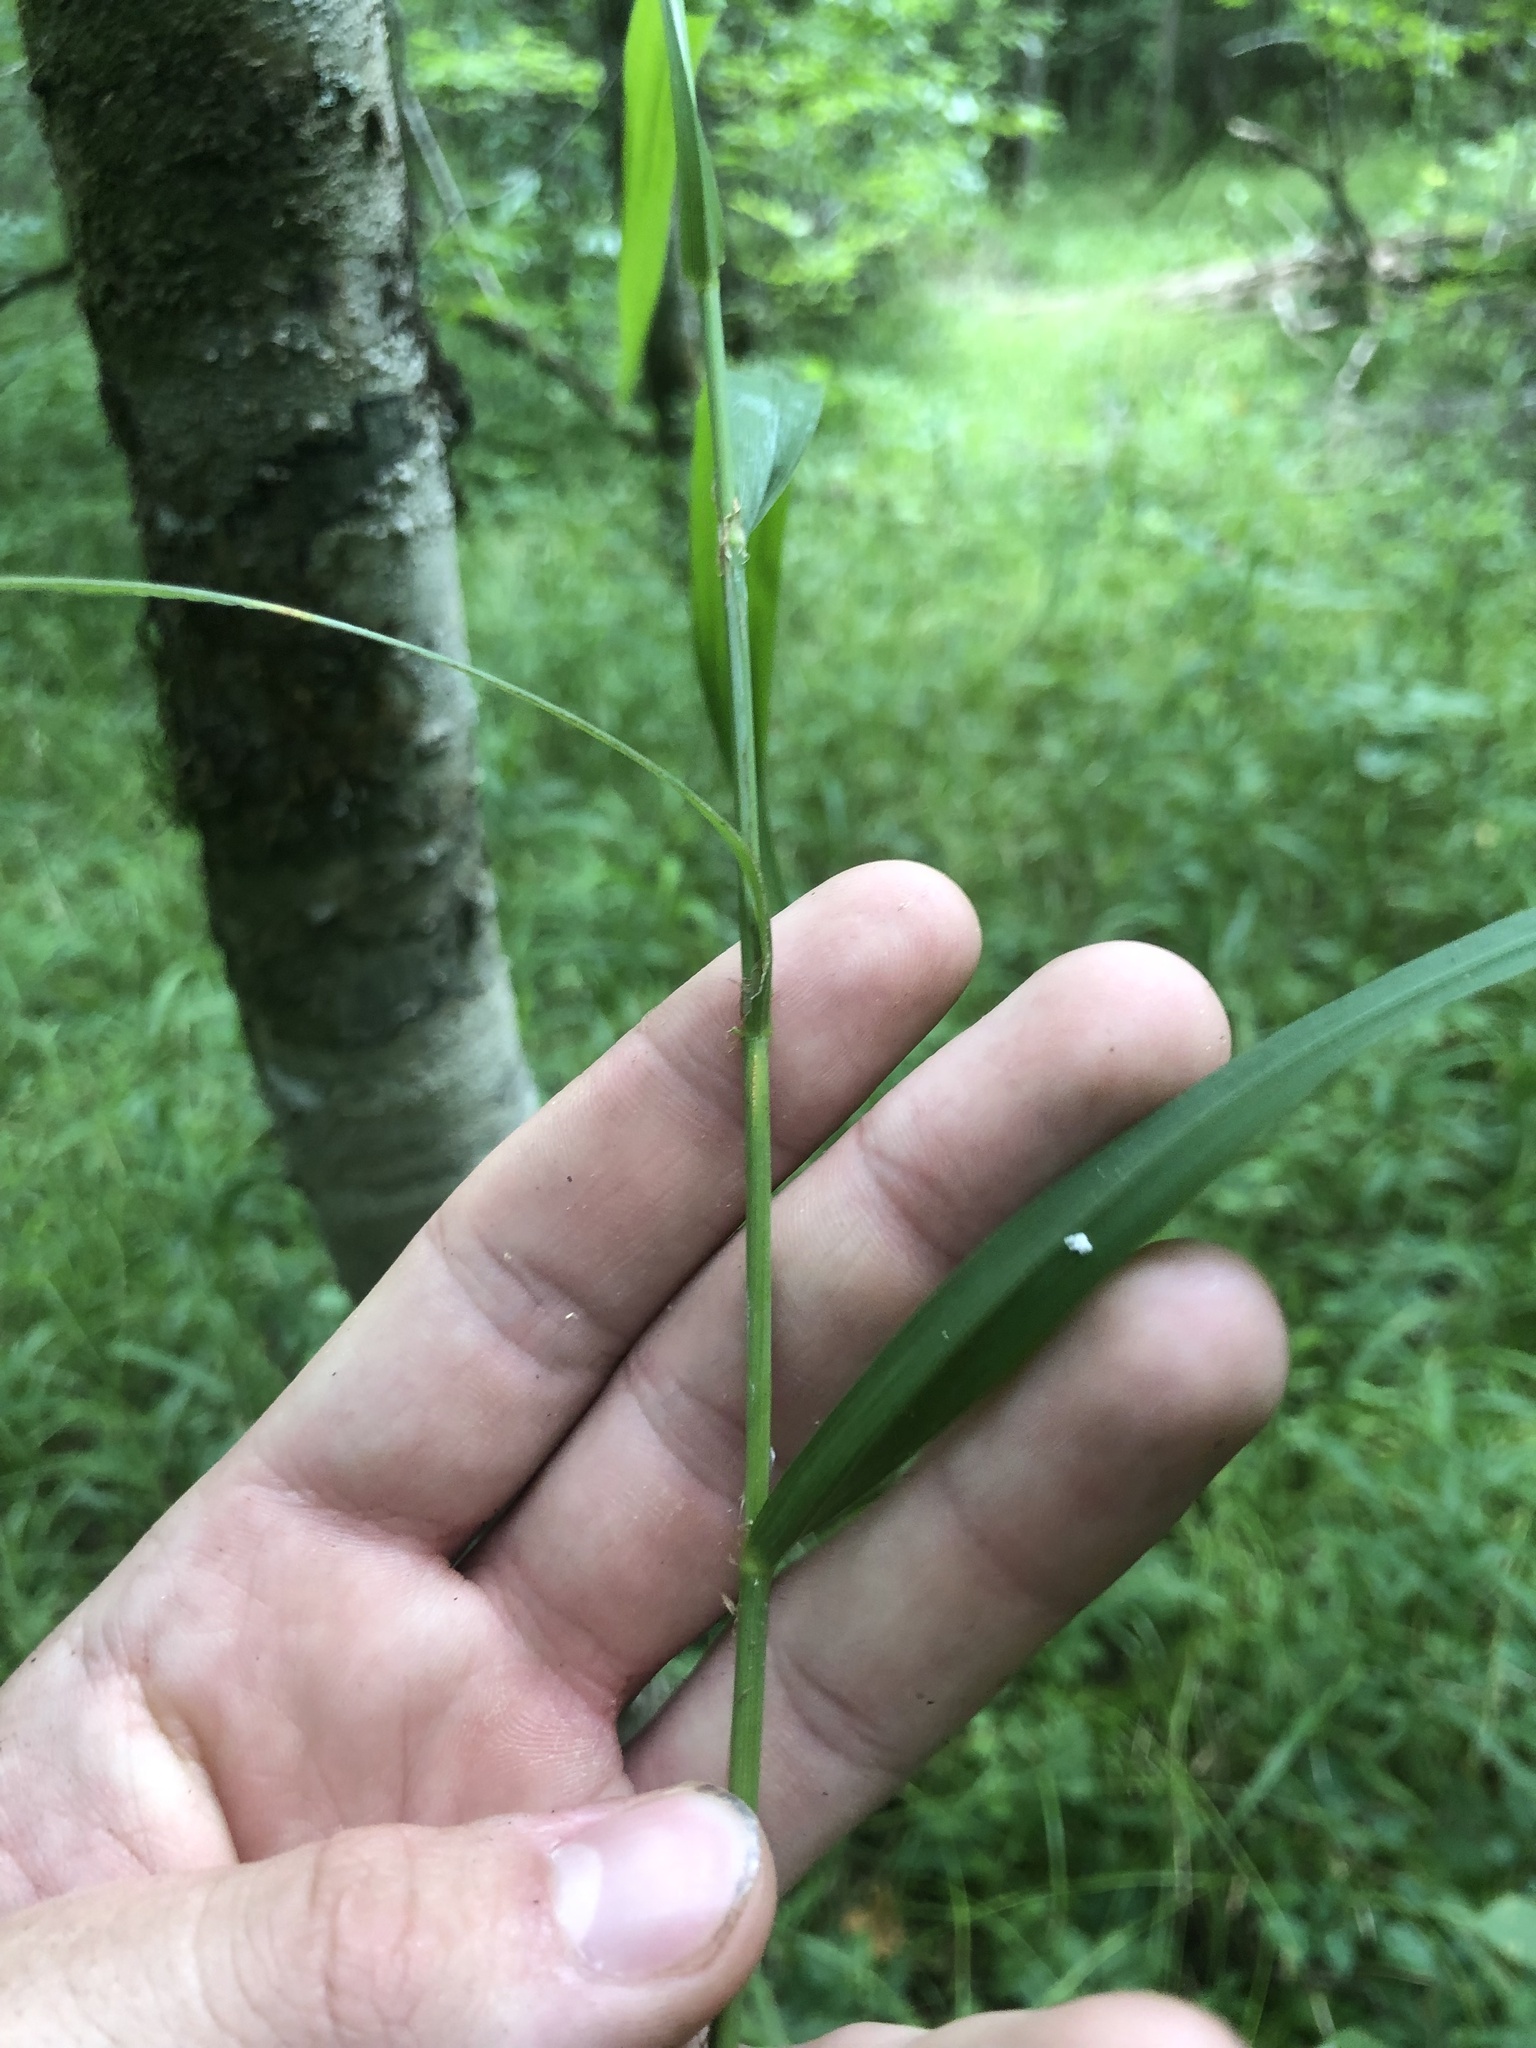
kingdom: Plantae
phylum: Tracheophyta
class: Liliopsida
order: Poales
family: Poaceae
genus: Cinna
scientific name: Cinna arundinacea
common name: Stout woodreed
